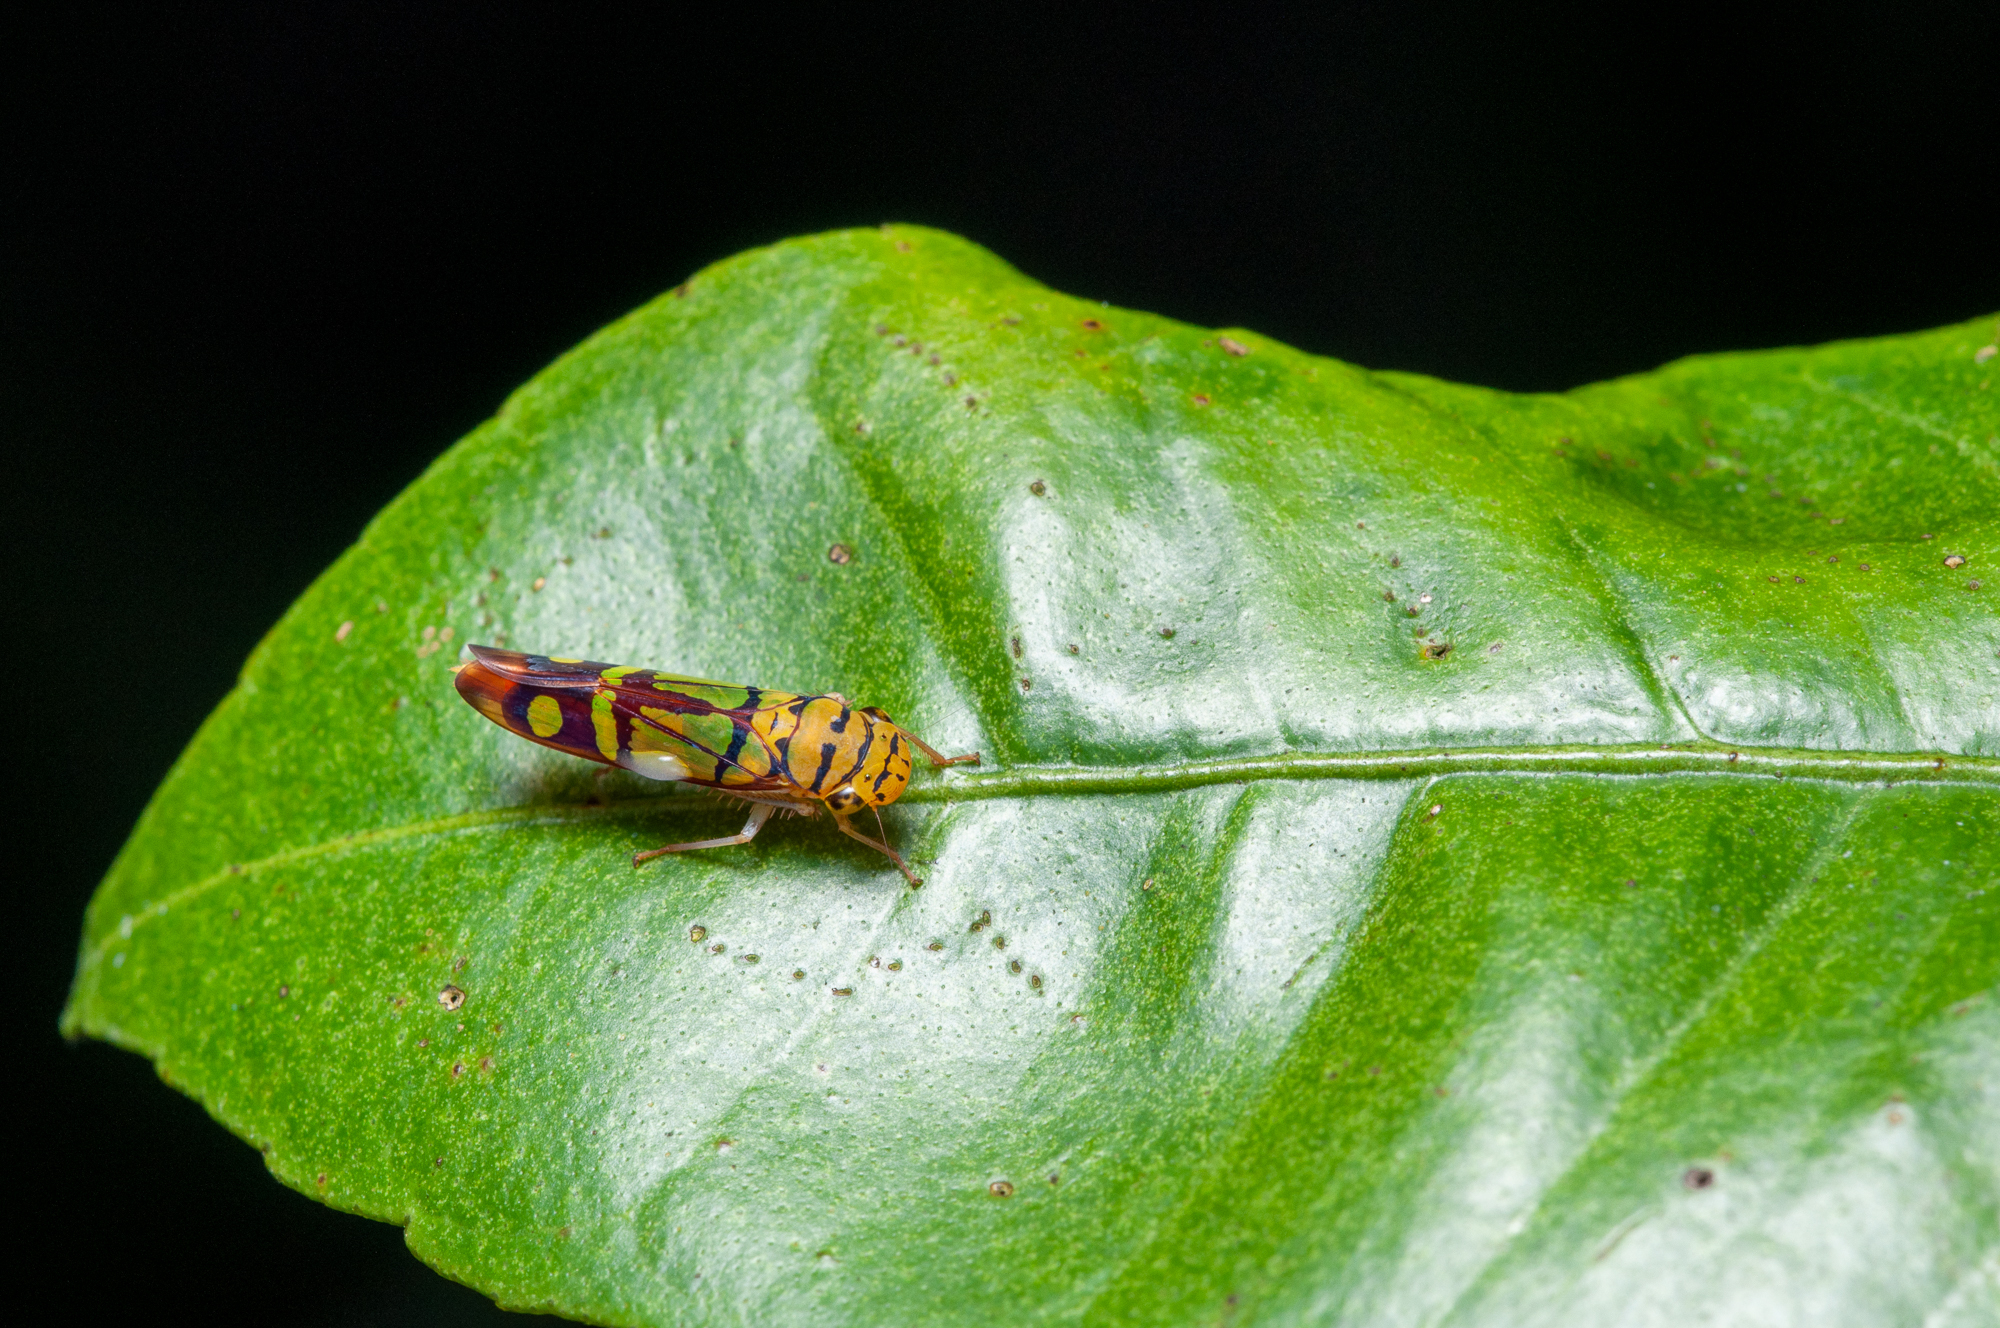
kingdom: Animalia
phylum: Arthropoda
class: Insecta
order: Hemiptera
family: Cicadellidae
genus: Dilobopterus
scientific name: Dilobopterus instratus
